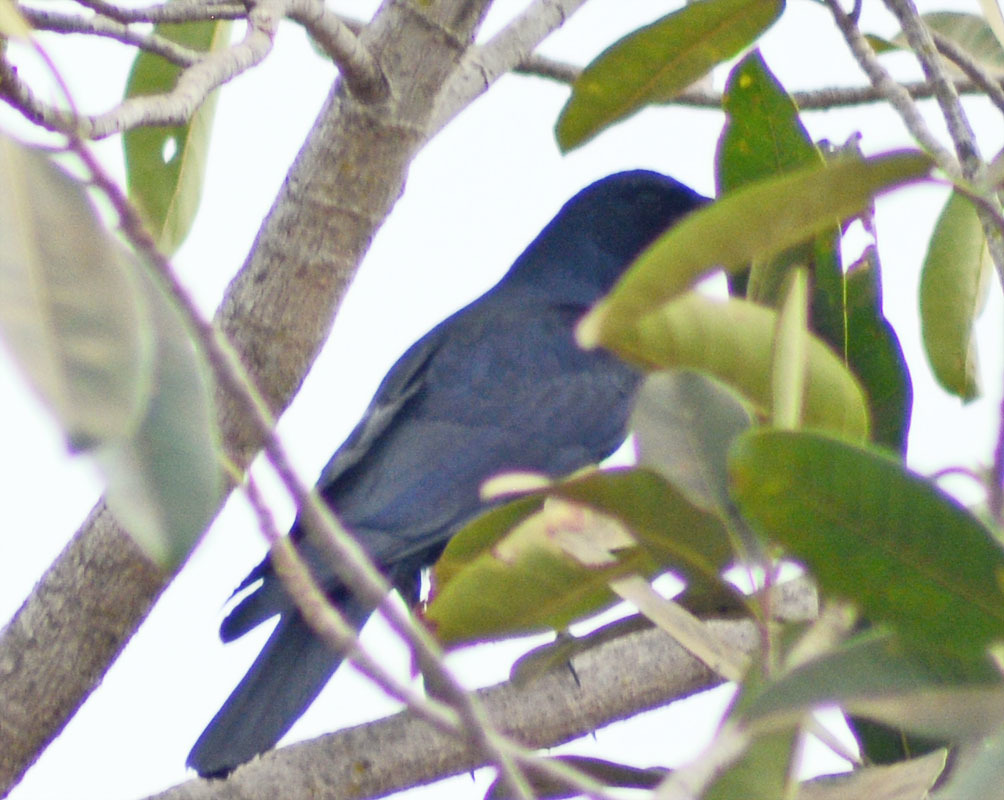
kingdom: Animalia
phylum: Chordata
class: Aves
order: Passeriformes
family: Corvidae
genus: Corvus
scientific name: Corvus sinaloae
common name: Sinaloa crow
